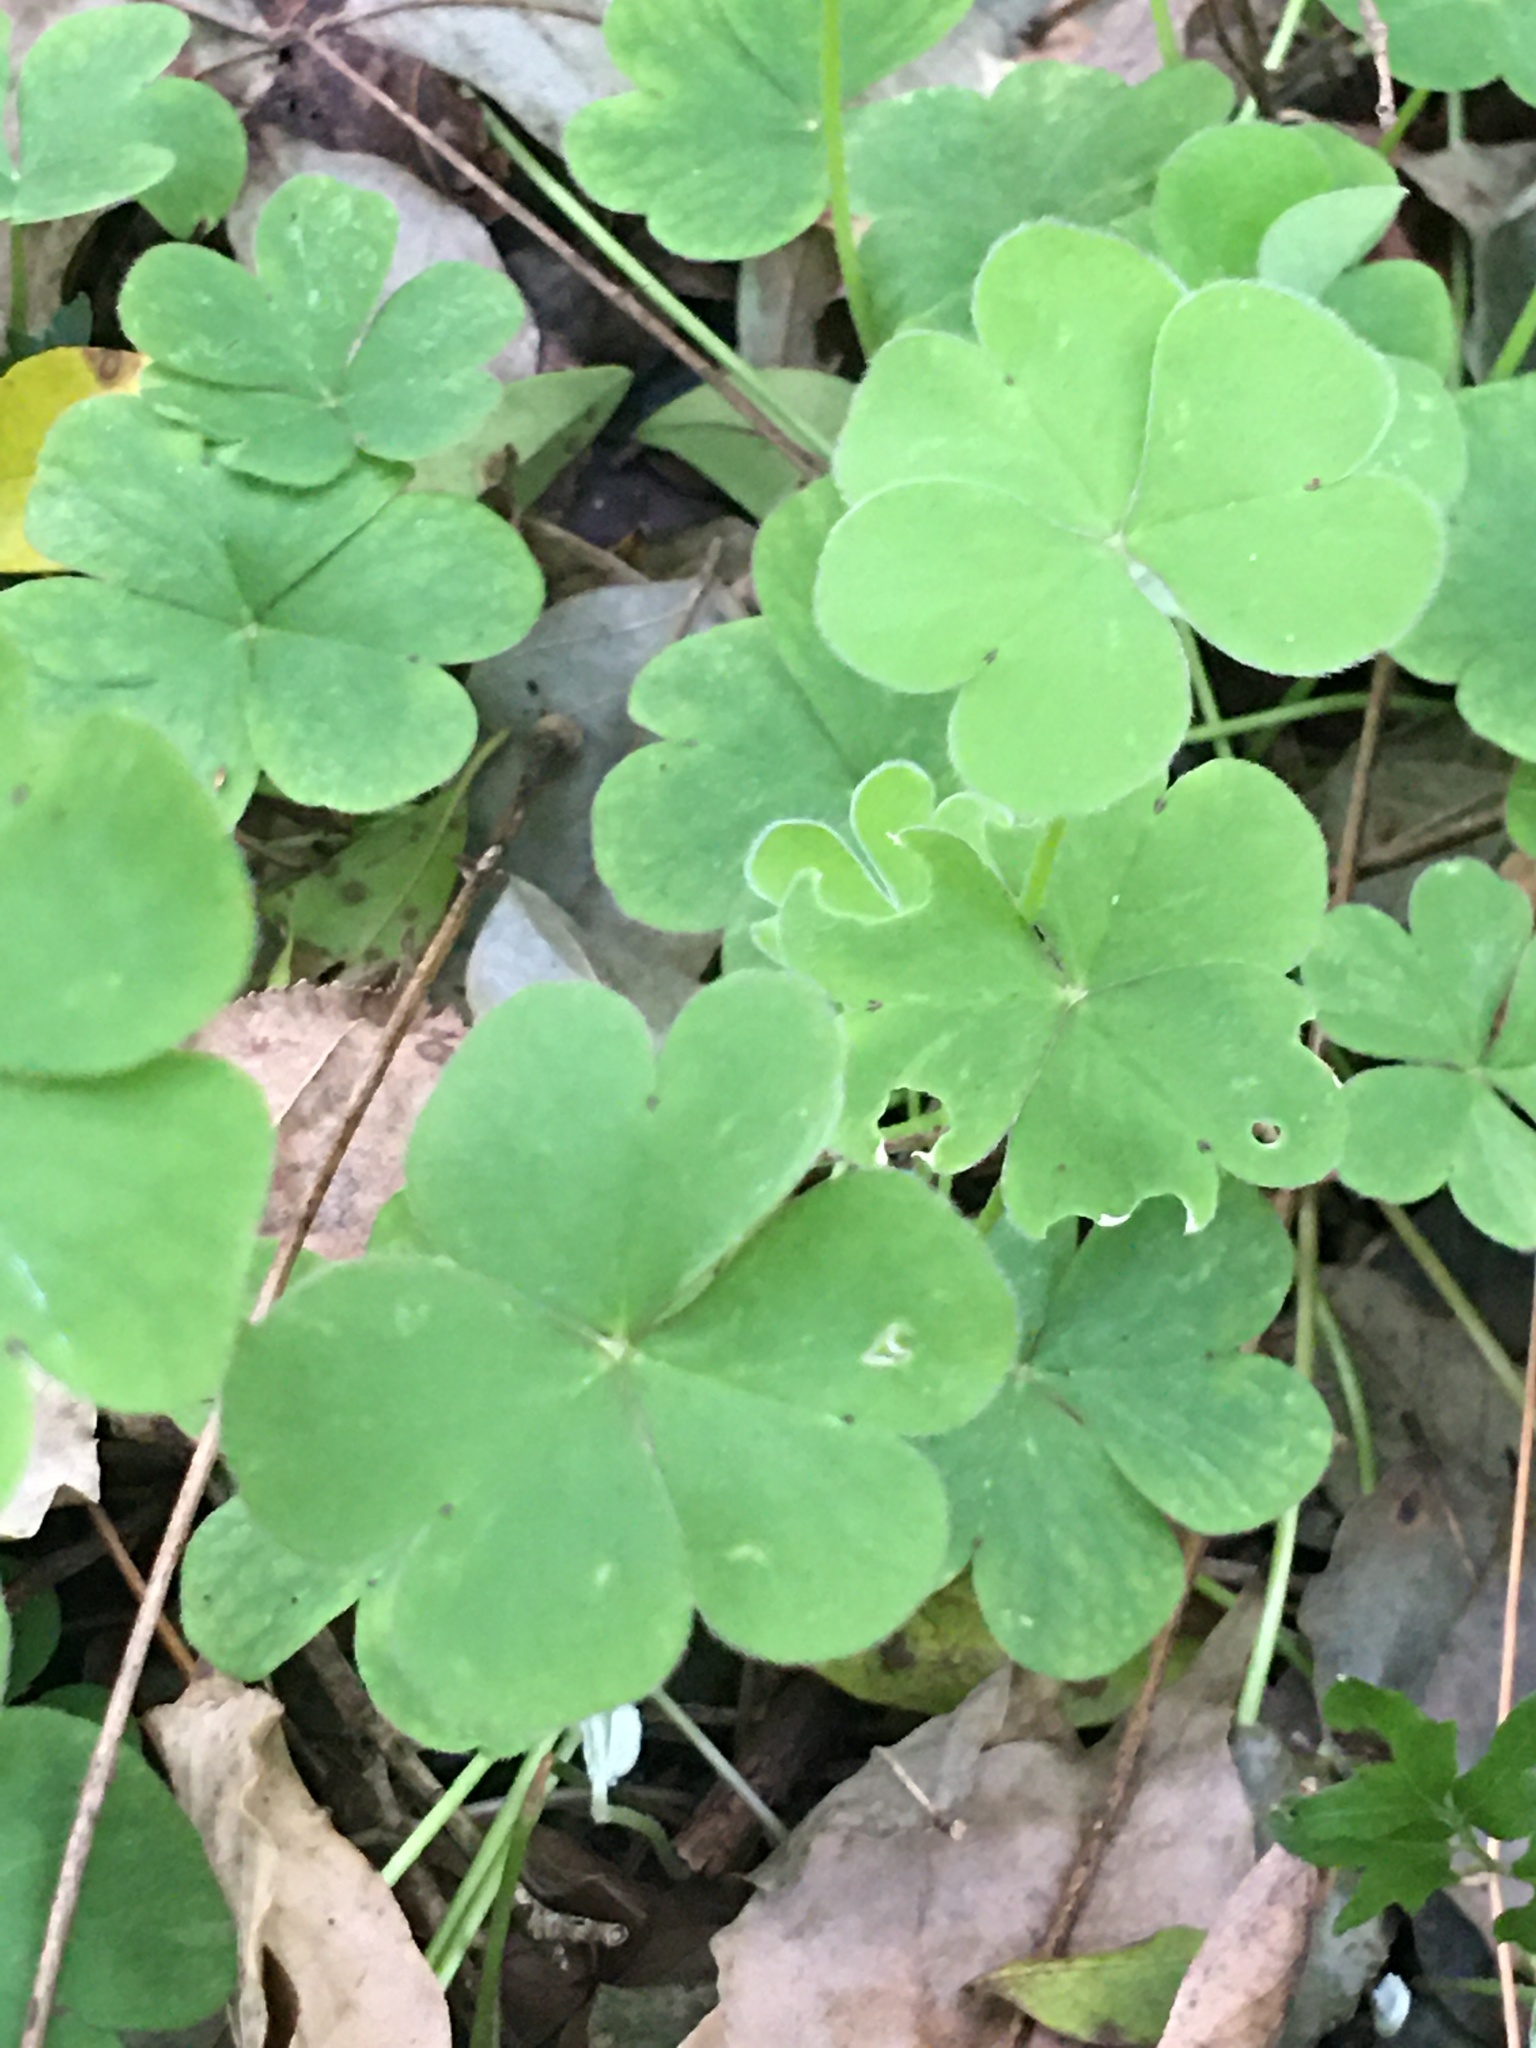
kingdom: Plantae
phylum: Tracheophyta
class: Magnoliopsida
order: Oxalidales
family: Oxalidaceae
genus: Oxalis
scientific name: Oxalis articulata
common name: Pink-sorrel
